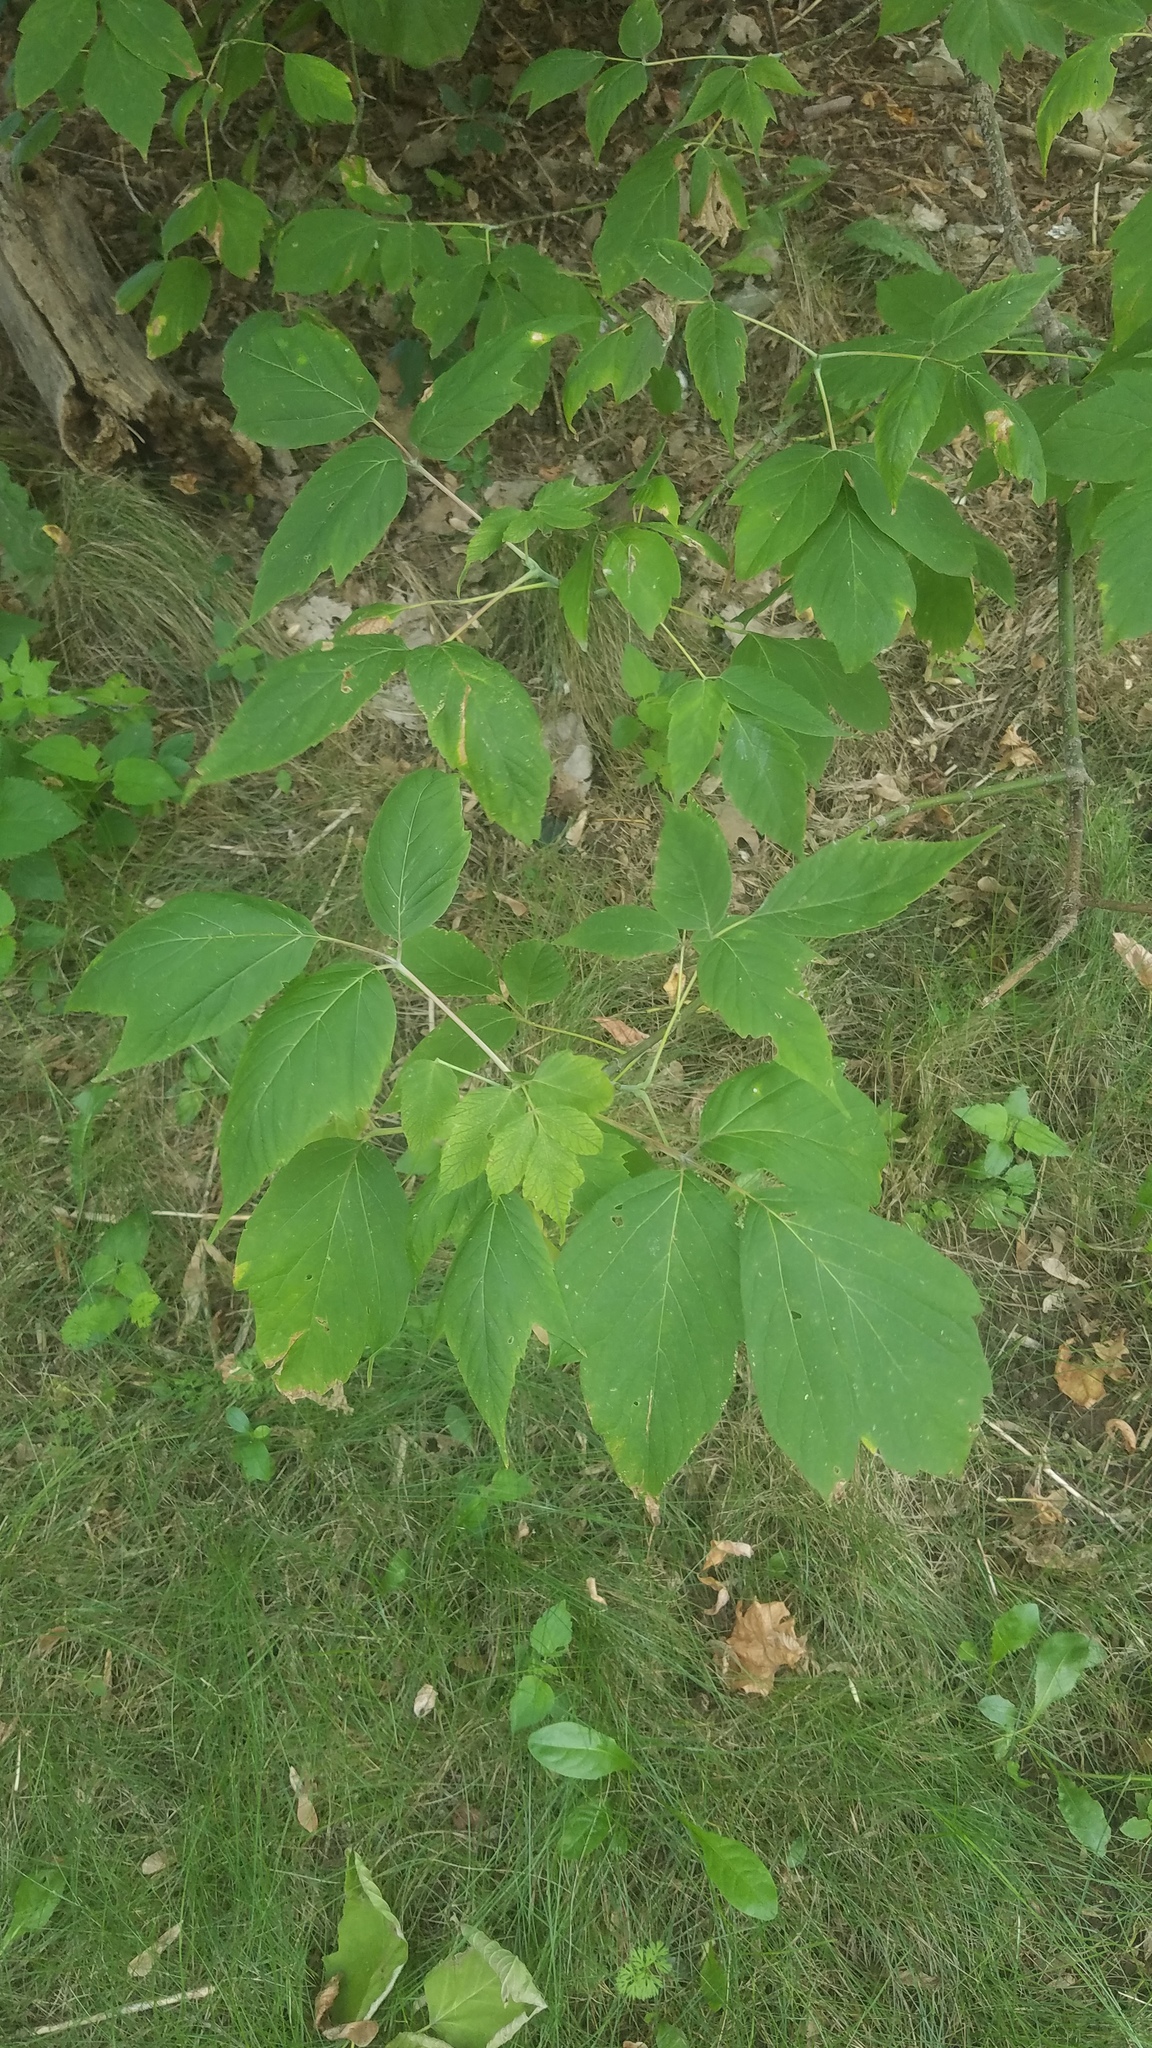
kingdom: Plantae
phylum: Tracheophyta
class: Magnoliopsida
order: Sapindales
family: Sapindaceae
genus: Acer
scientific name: Acer negundo
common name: Ashleaf maple
